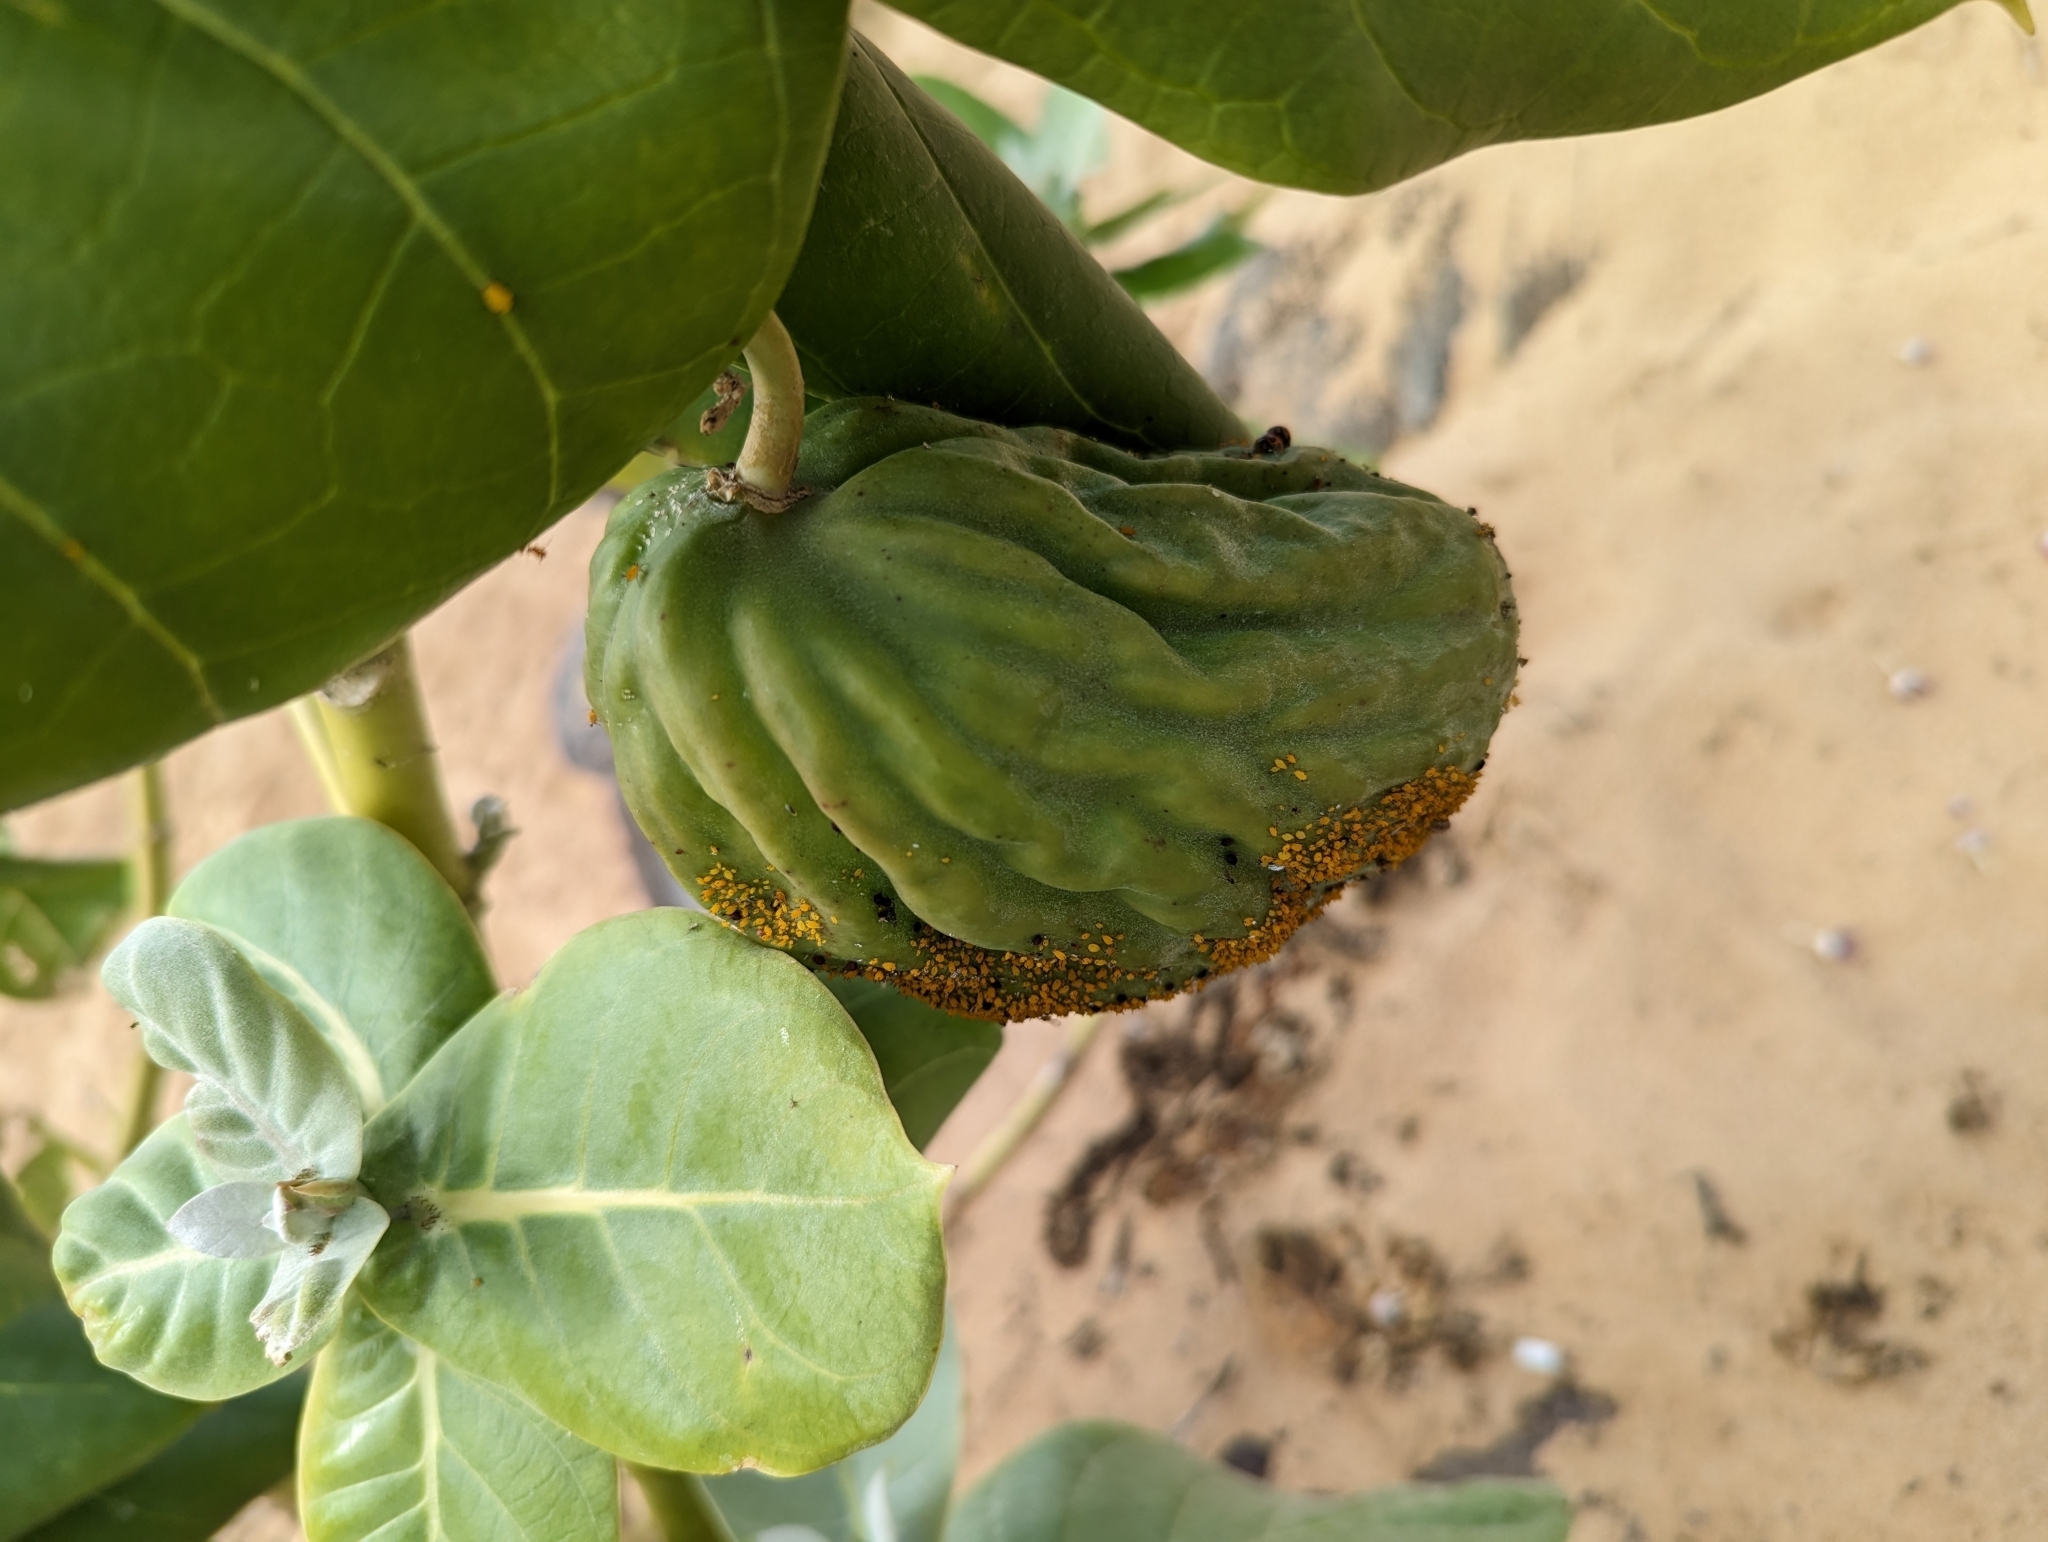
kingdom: Plantae
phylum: Tracheophyta
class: Magnoliopsida
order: Gentianales
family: Apocynaceae
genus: Calotropis
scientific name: Calotropis procera
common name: Roostertree
